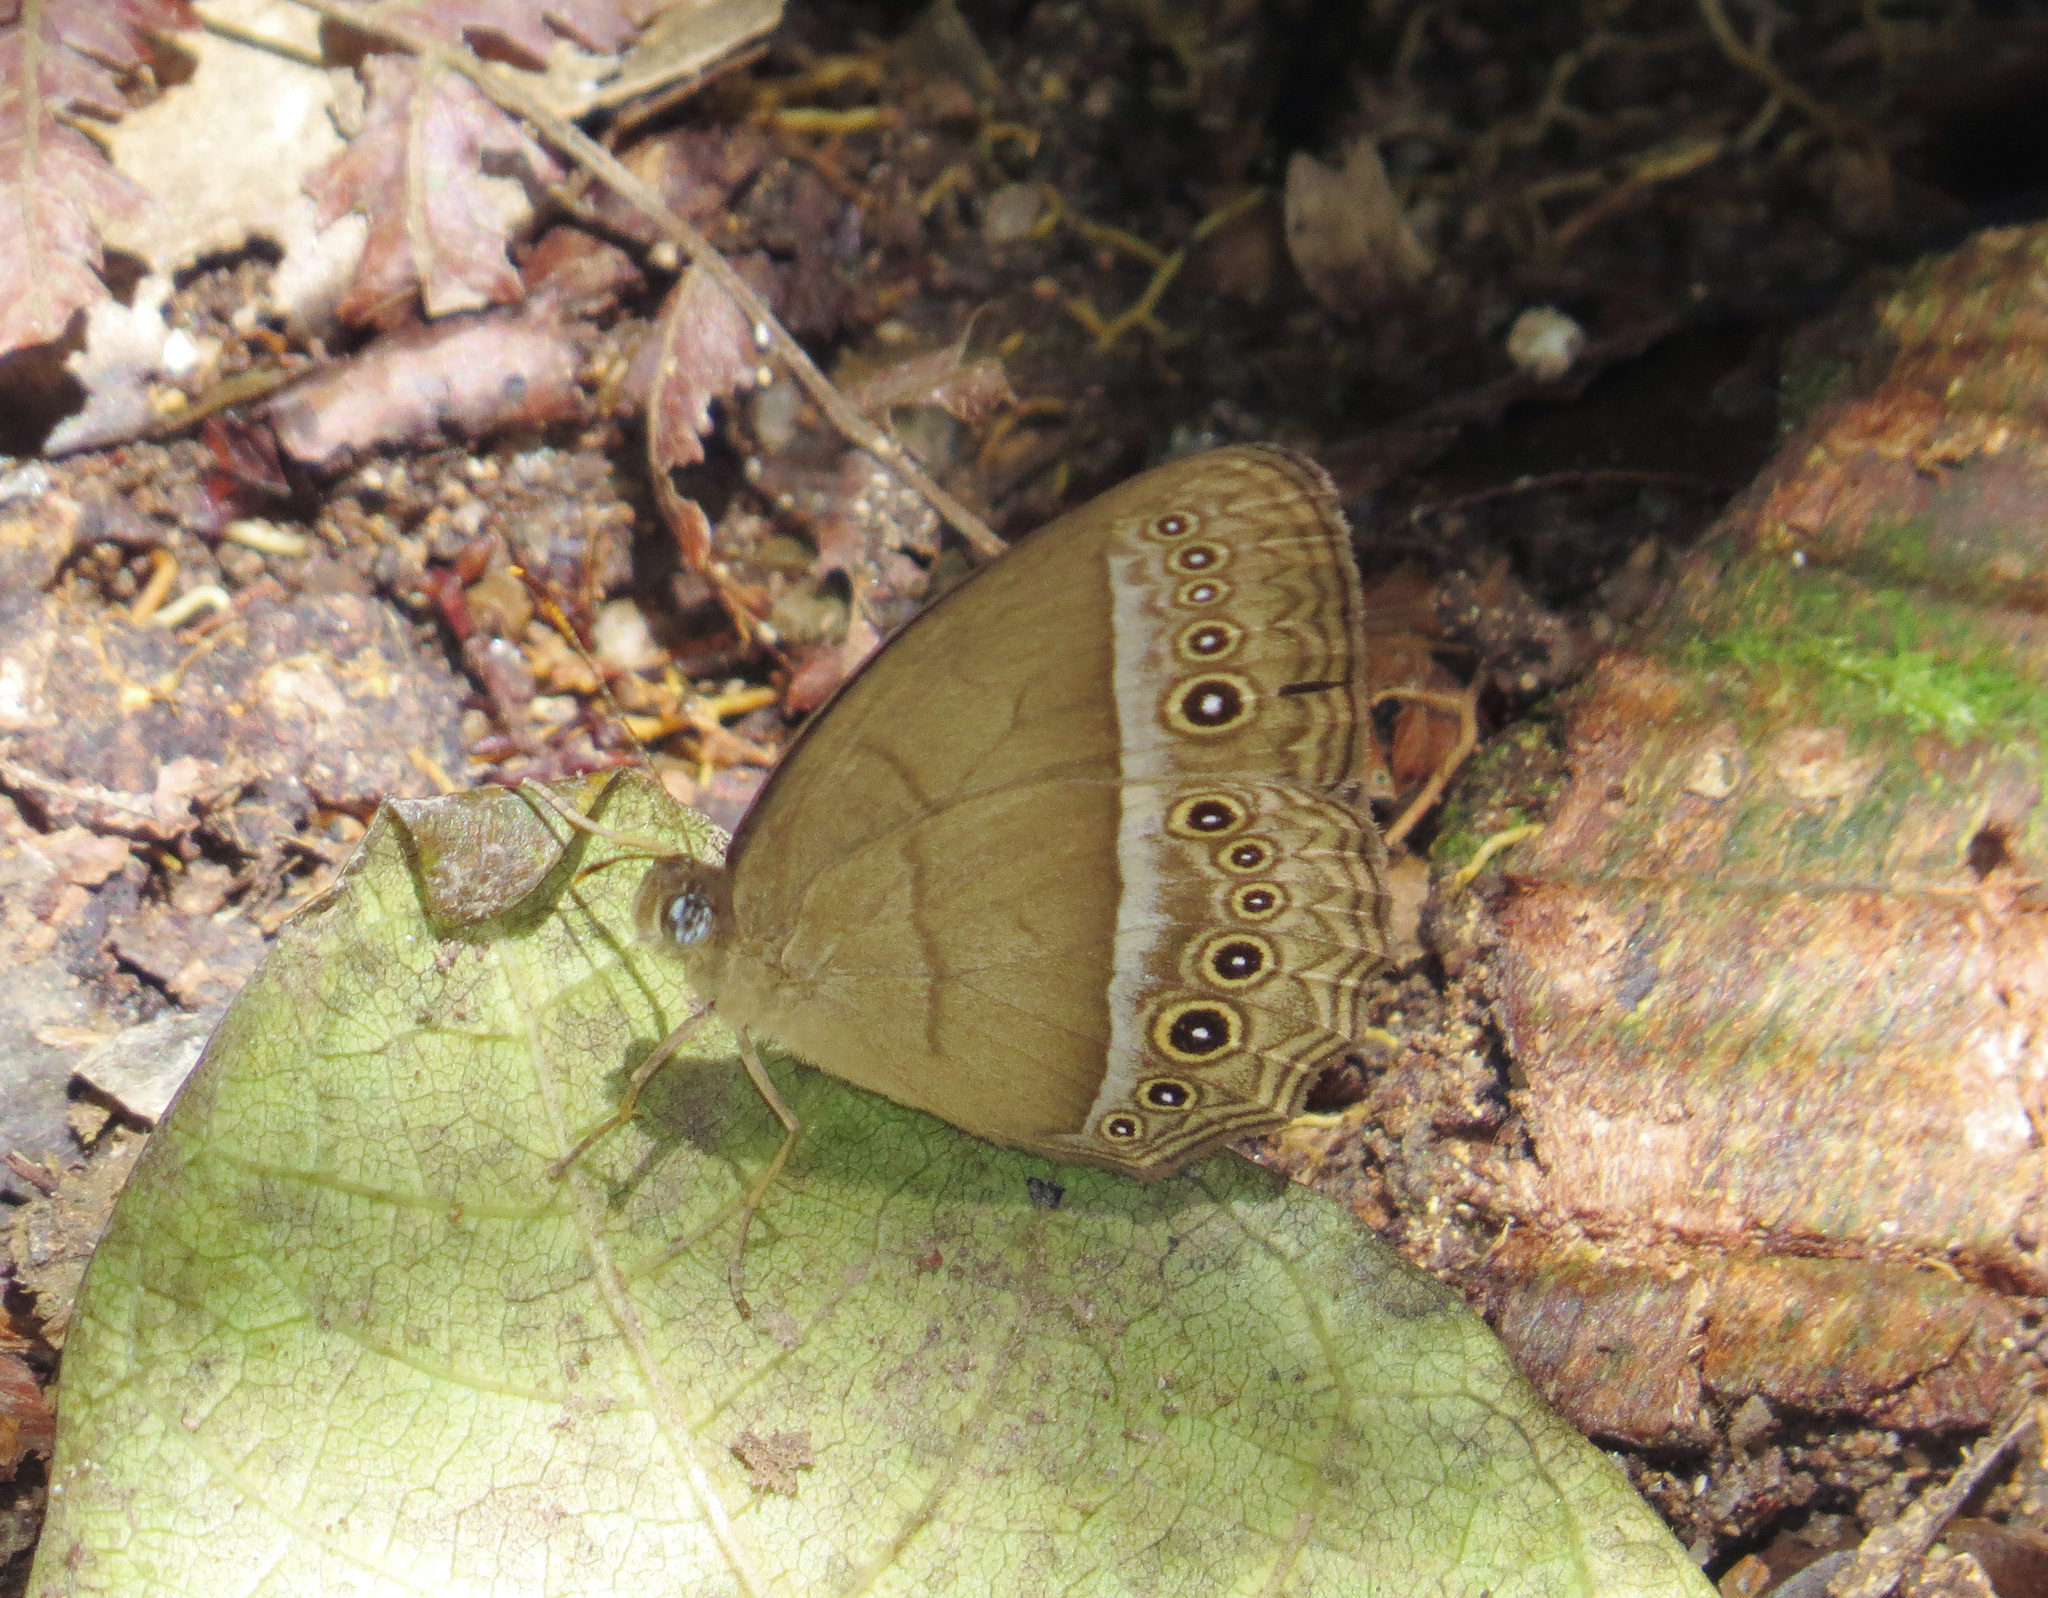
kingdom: Animalia
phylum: Arthropoda
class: Insecta
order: Lepidoptera
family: Nymphalidae
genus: Mycalesis
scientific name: Mycalesis orseis
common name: Purple bushbrown
